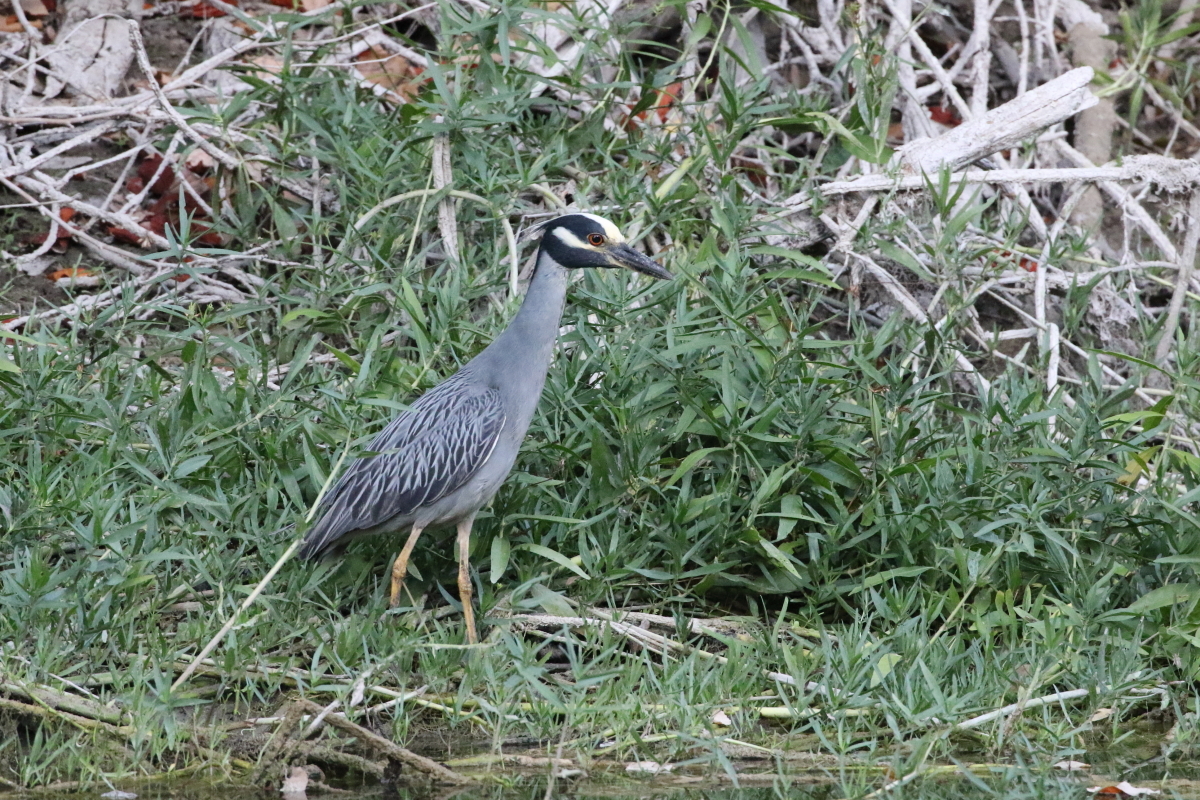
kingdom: Animalia
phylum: Chordata
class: Aves
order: Pelecaniformes
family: Ardeidae
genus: Nyctanassa
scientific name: Nyctanassa violacea
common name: Yellow-crowned night heron
